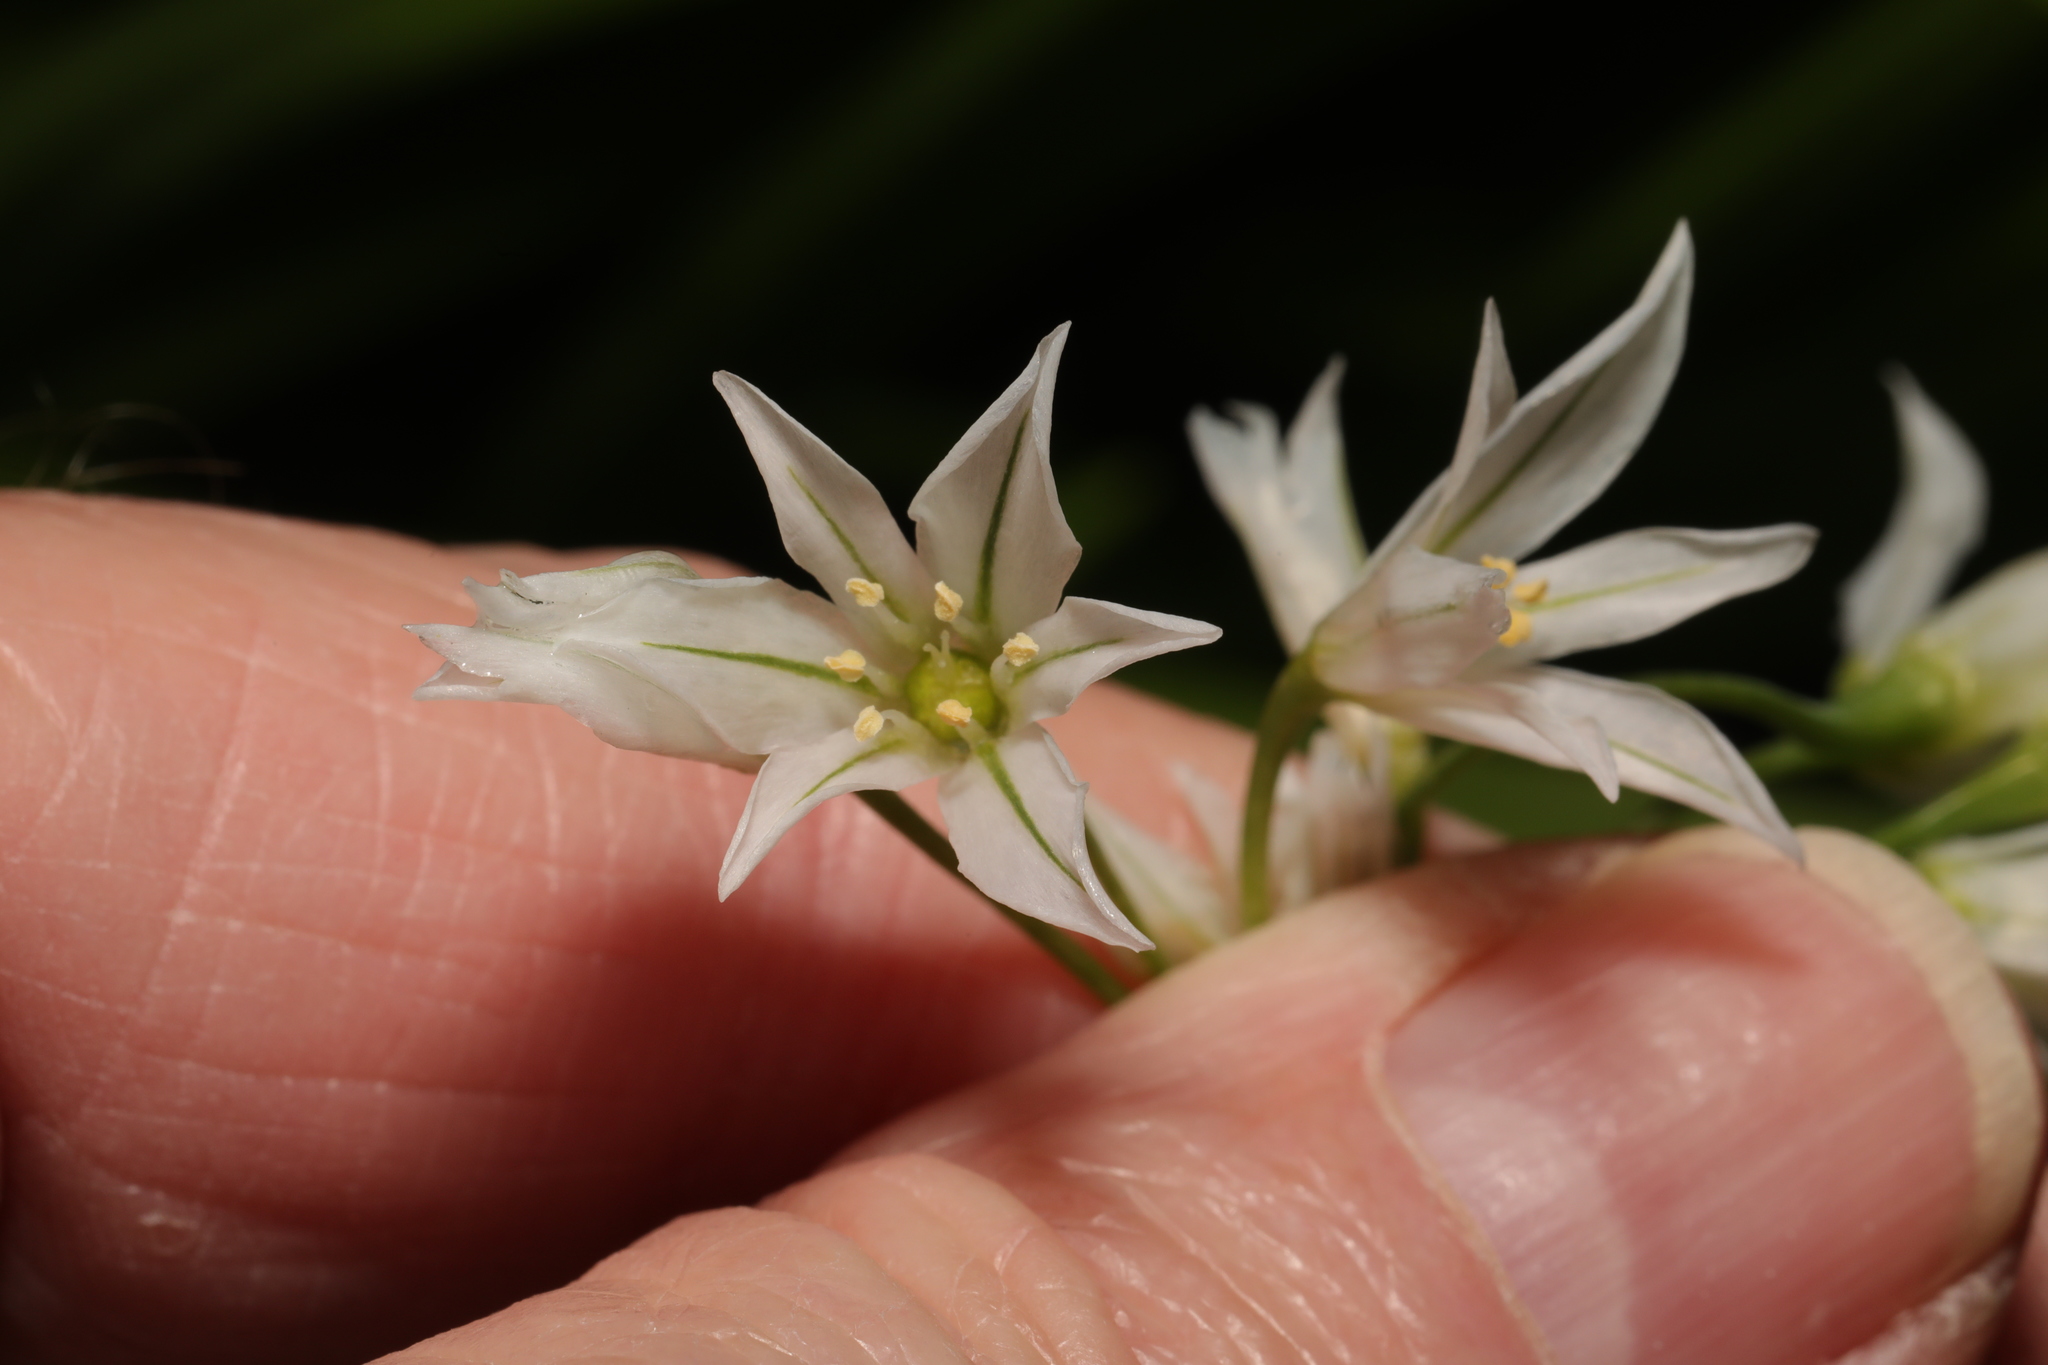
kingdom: Plantae
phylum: Tracheophyta
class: Liliopsida
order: Asparagales
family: Amaryllidaceae
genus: Allium
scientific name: Allium triquetrum
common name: Three-cornered garlic
